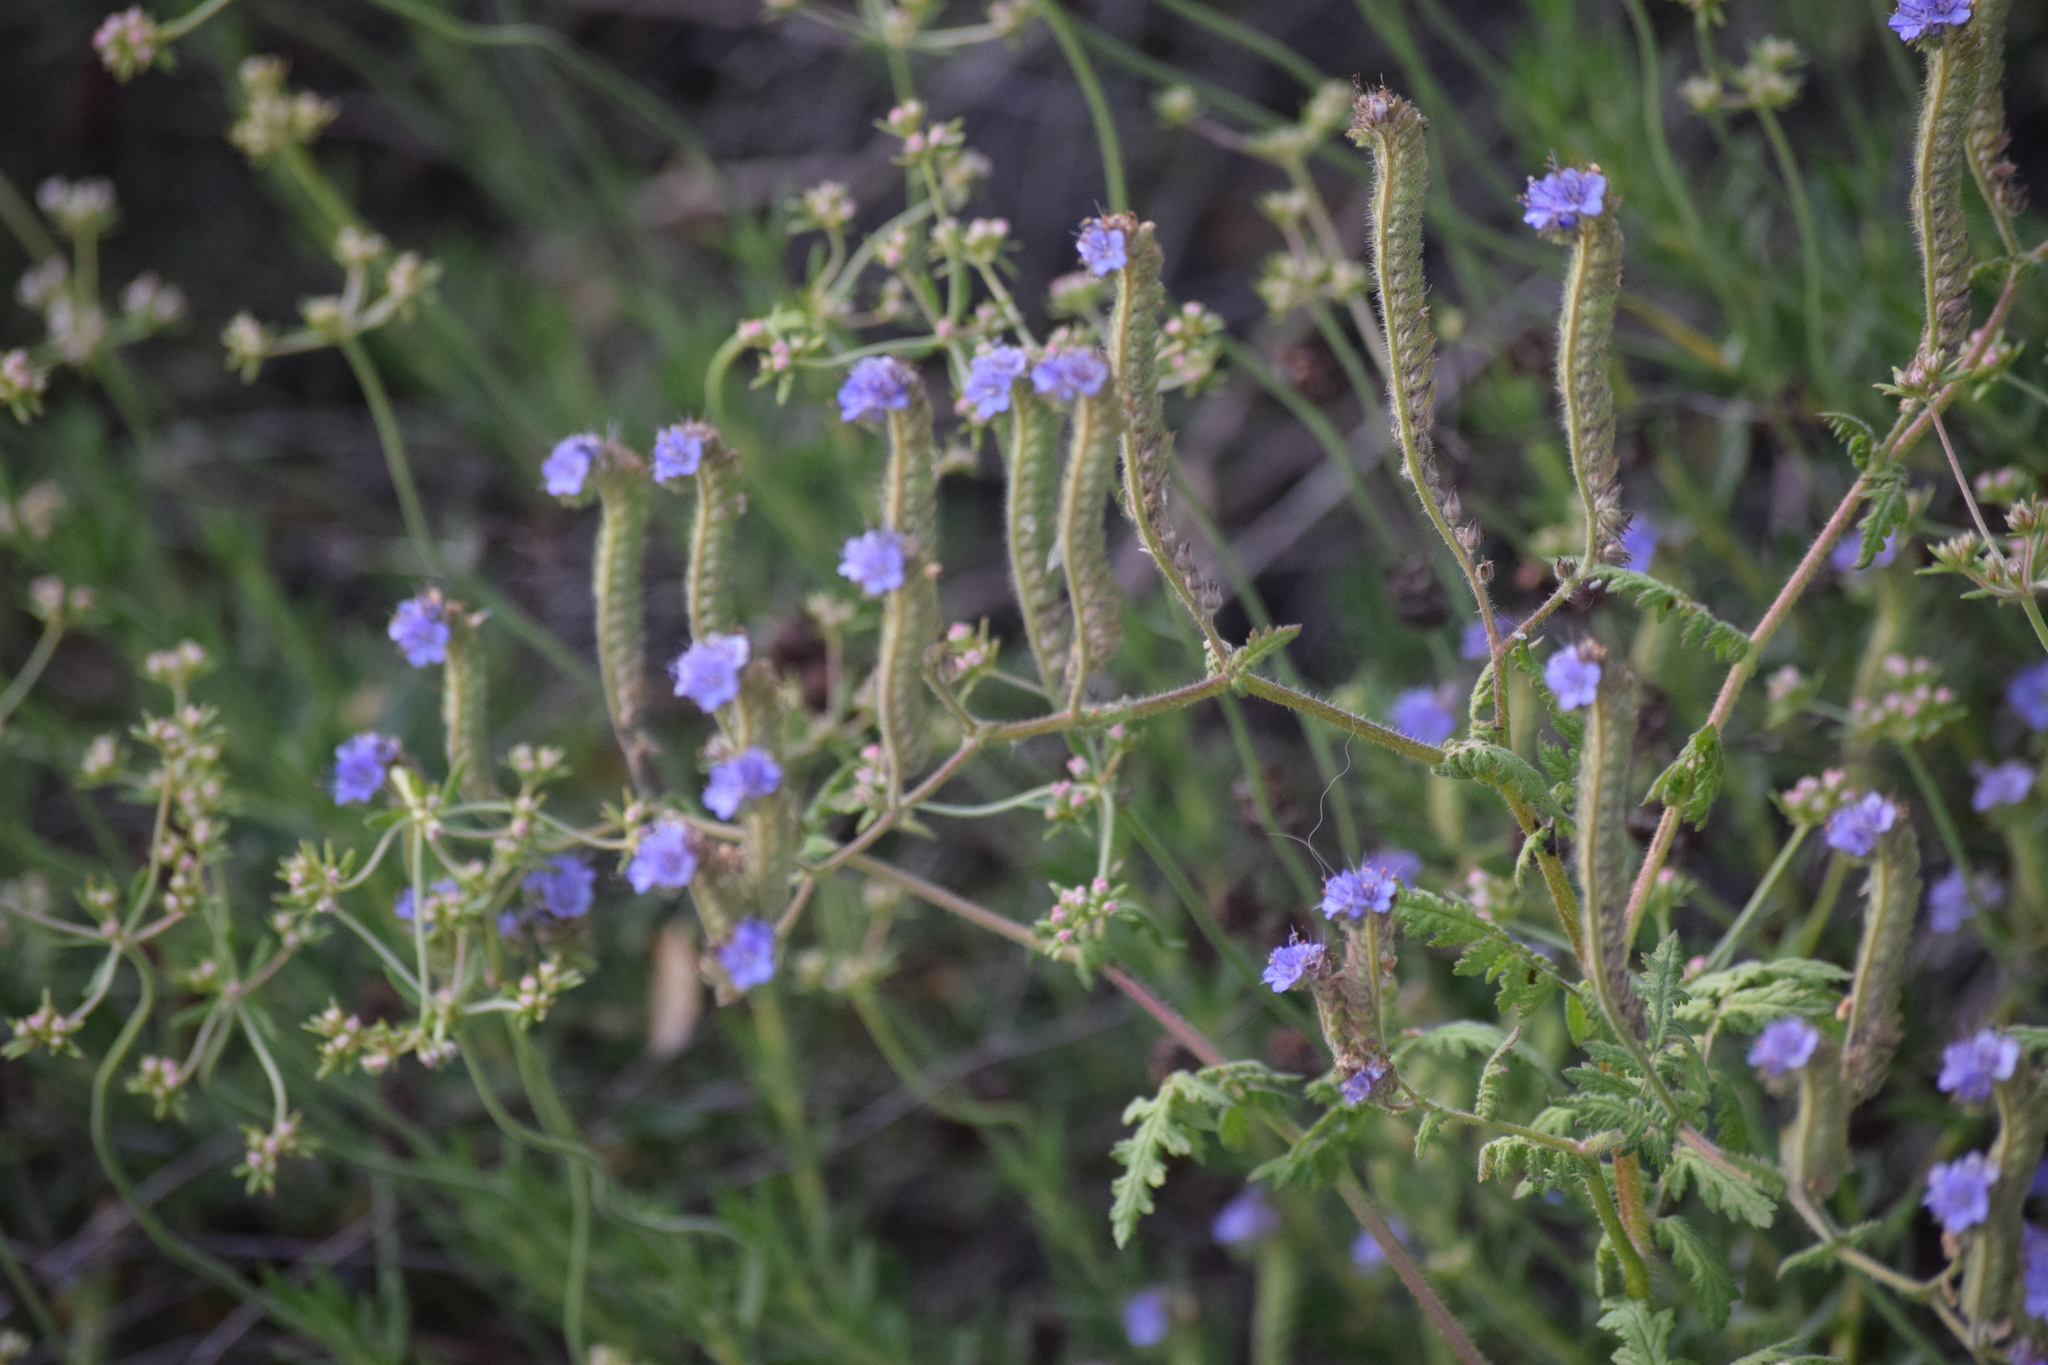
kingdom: Plantae
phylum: Tracheophyta
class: Magnoliopsida
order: Boraginales
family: Hydrophyllaceae
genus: Phacelia
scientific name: Phacelia distans
